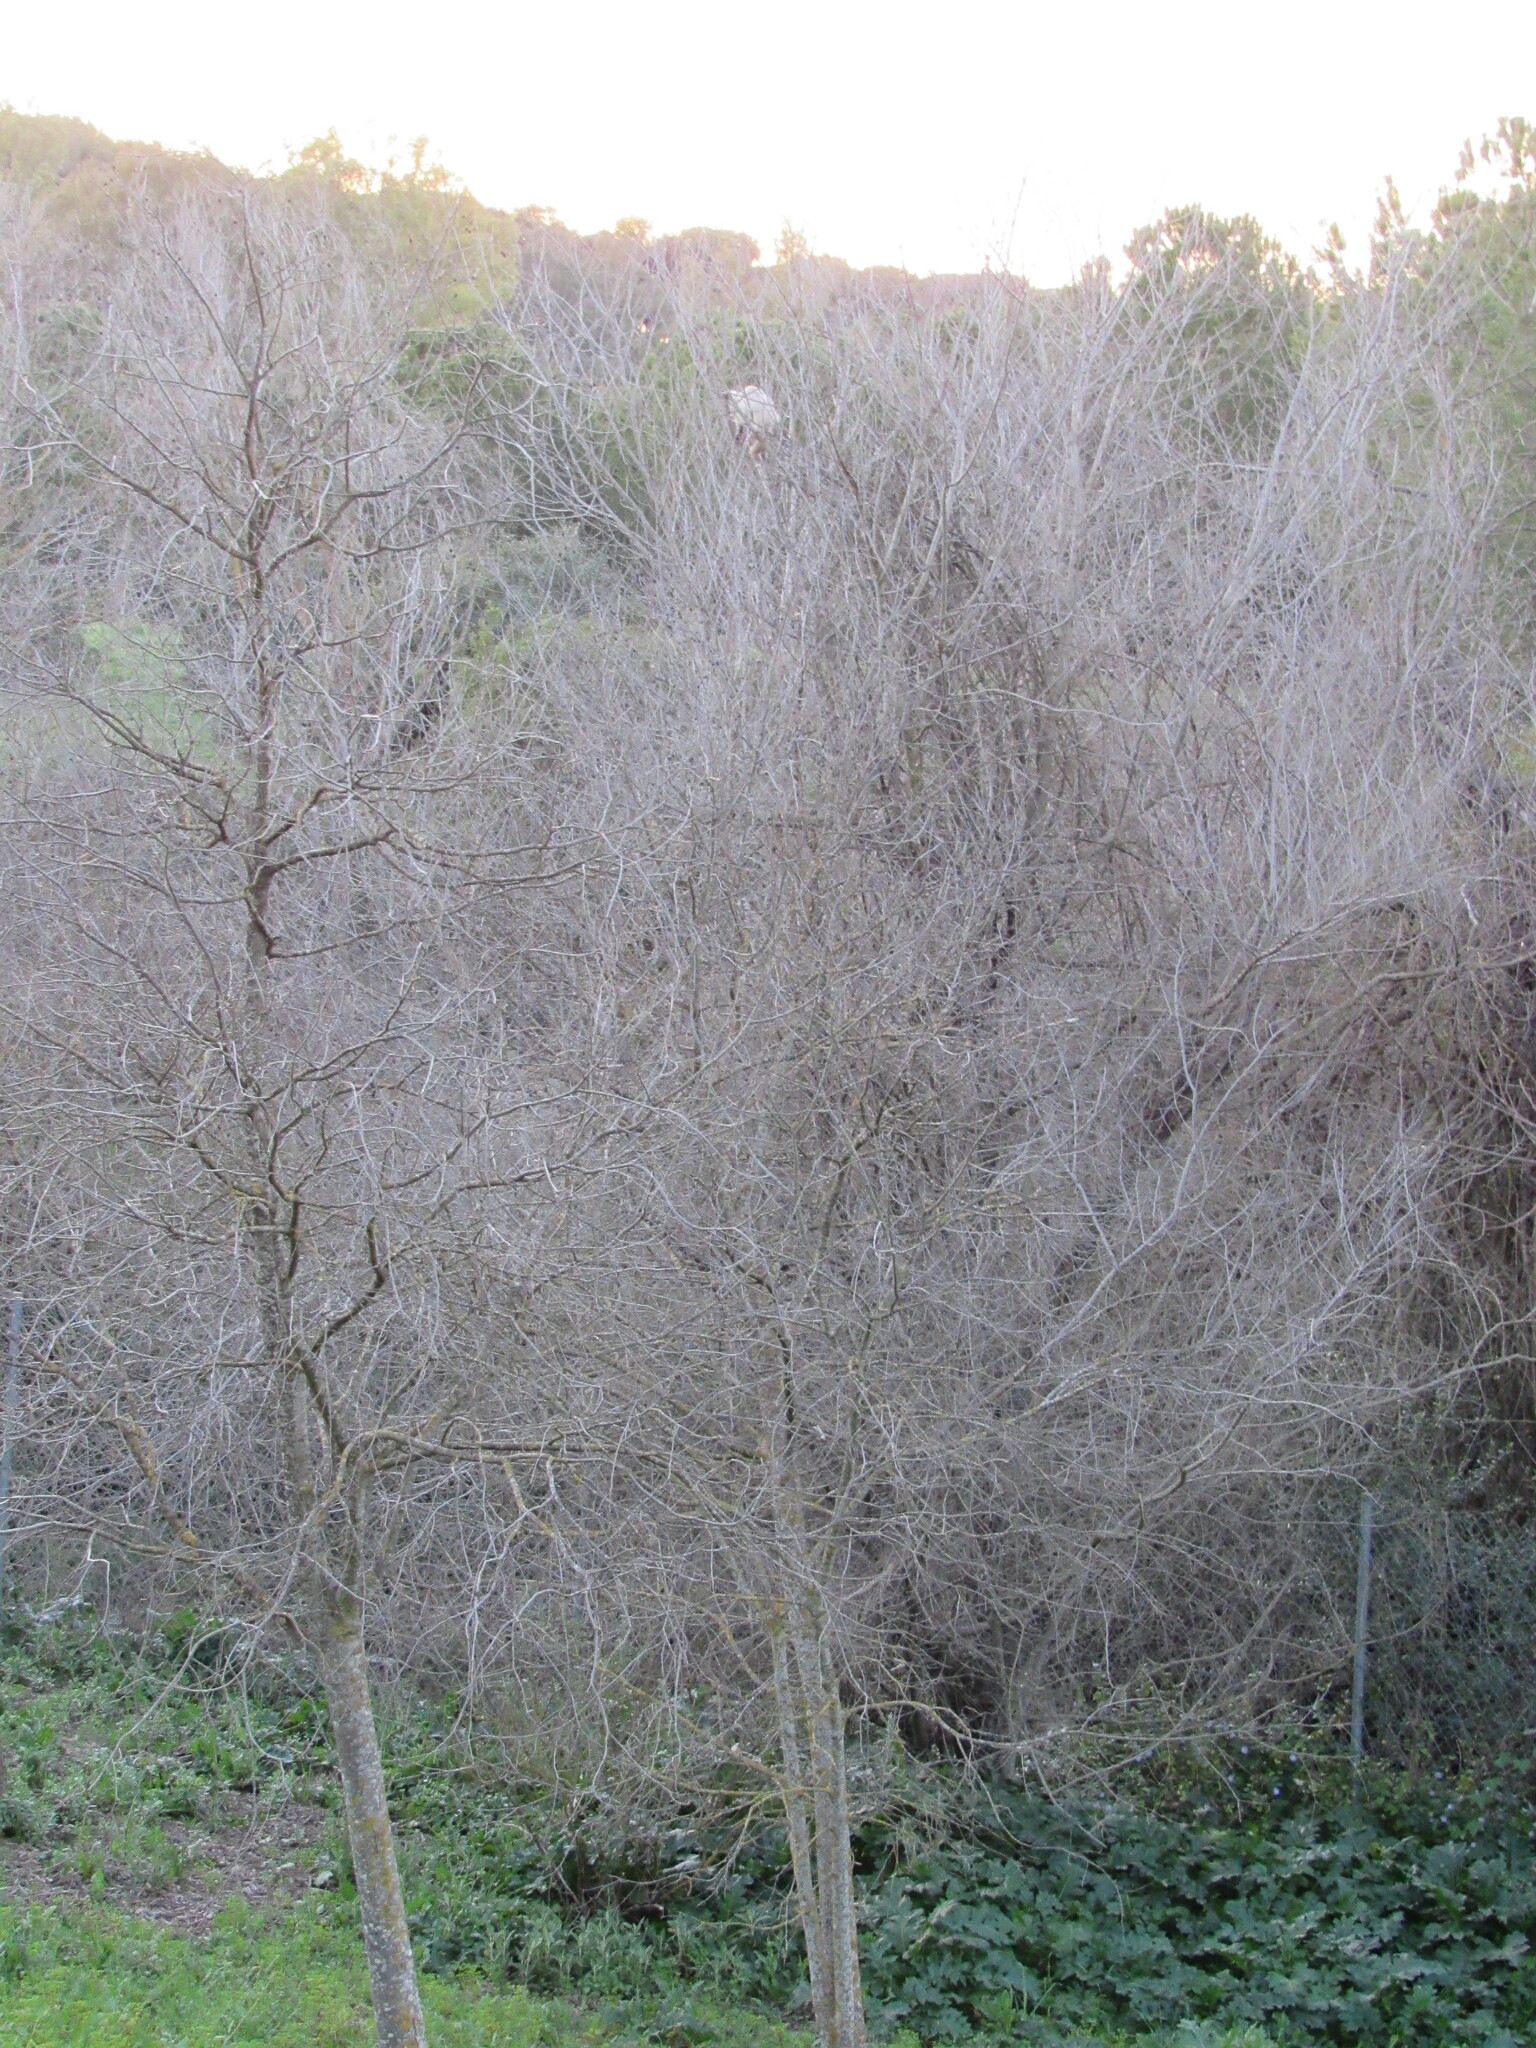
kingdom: Animalia
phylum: Chordata
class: Mammalia
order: Carnivora
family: Felidae
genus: Felis
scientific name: Felis catus
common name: Domestic cat
